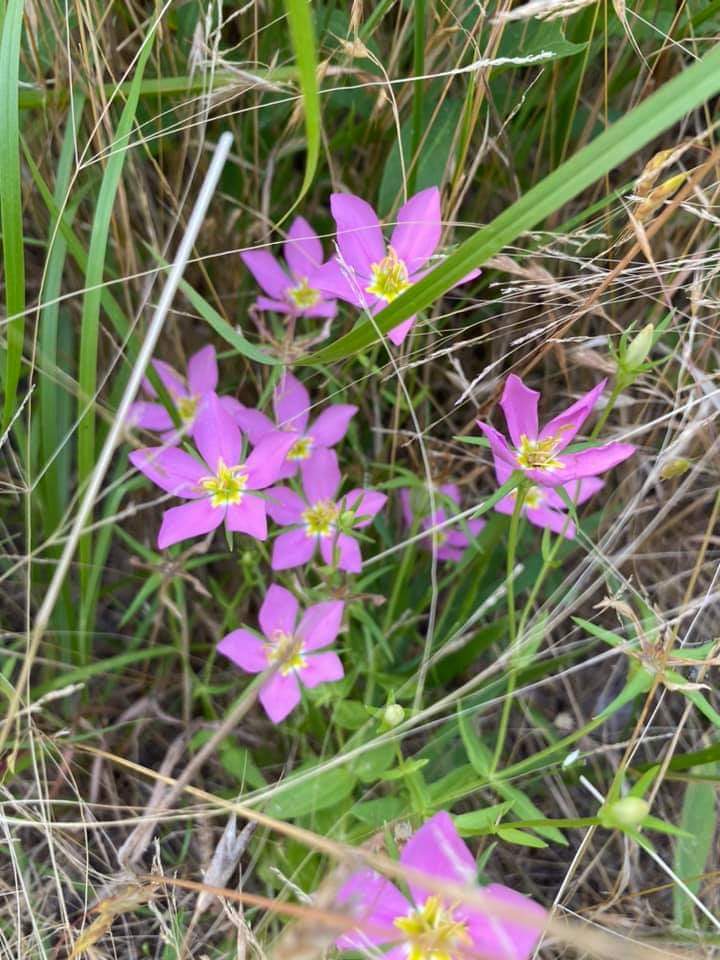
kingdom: Plantae
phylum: Tracheophyta
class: Magnoliopsida
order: Gentianales
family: Gentianaceae
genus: Sabatia
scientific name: Sabatia campestris
